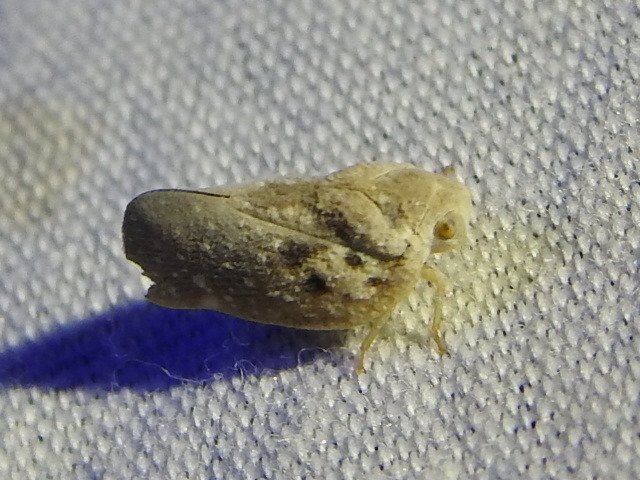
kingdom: Animalia
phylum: Arthropoda
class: Insecta
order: Hemiptera
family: Flatidae
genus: Metcalfa
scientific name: Metcalfa pruinosa
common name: Citrus flatid planthopper
